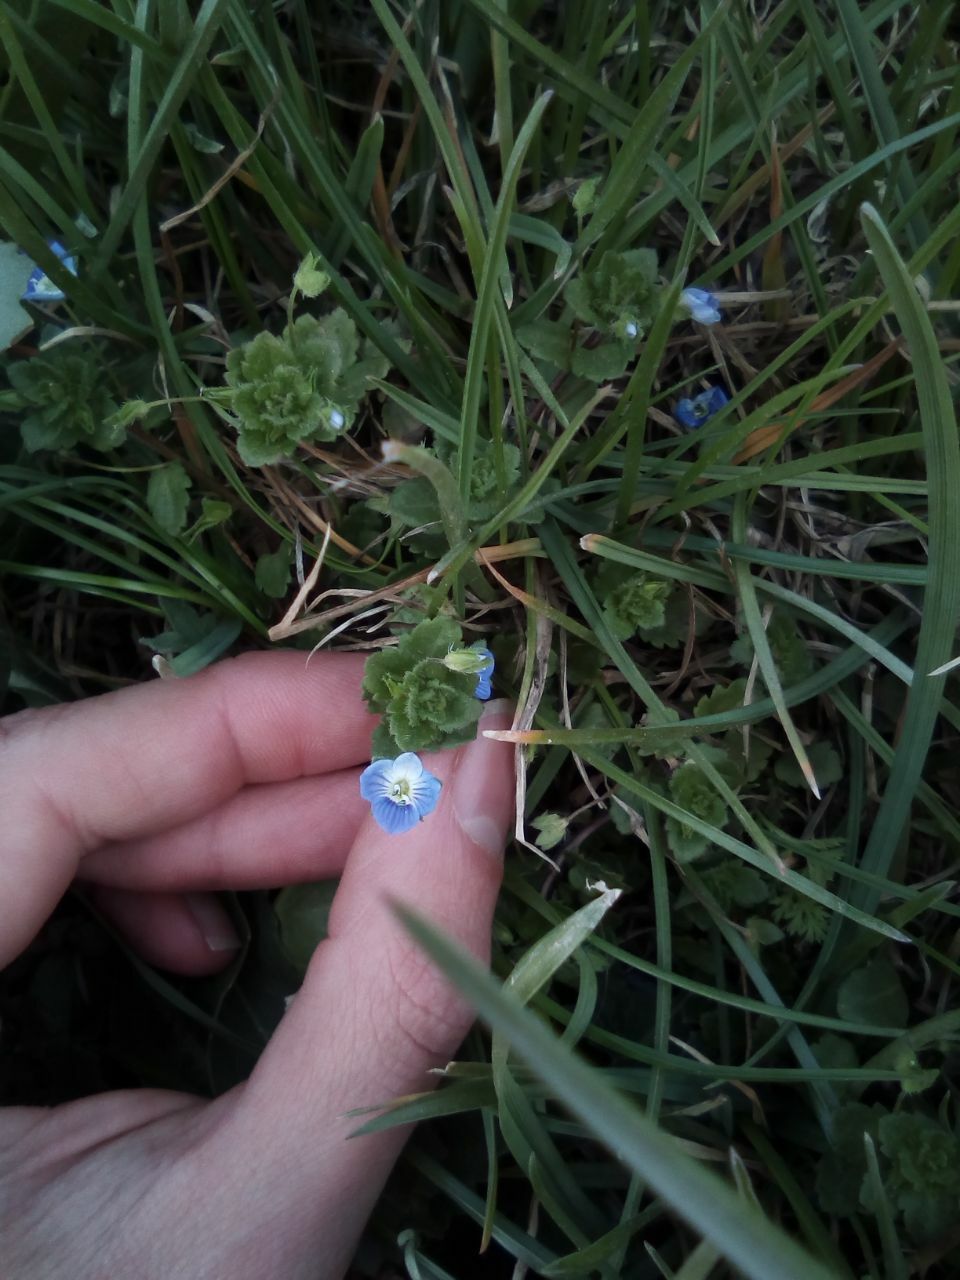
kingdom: Plantae
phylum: Tracheophyta
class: Magnoliopsida
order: Lamiales
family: Plantaginaceae
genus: Veronica
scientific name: Veronica persica
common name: Common field-speedwell
